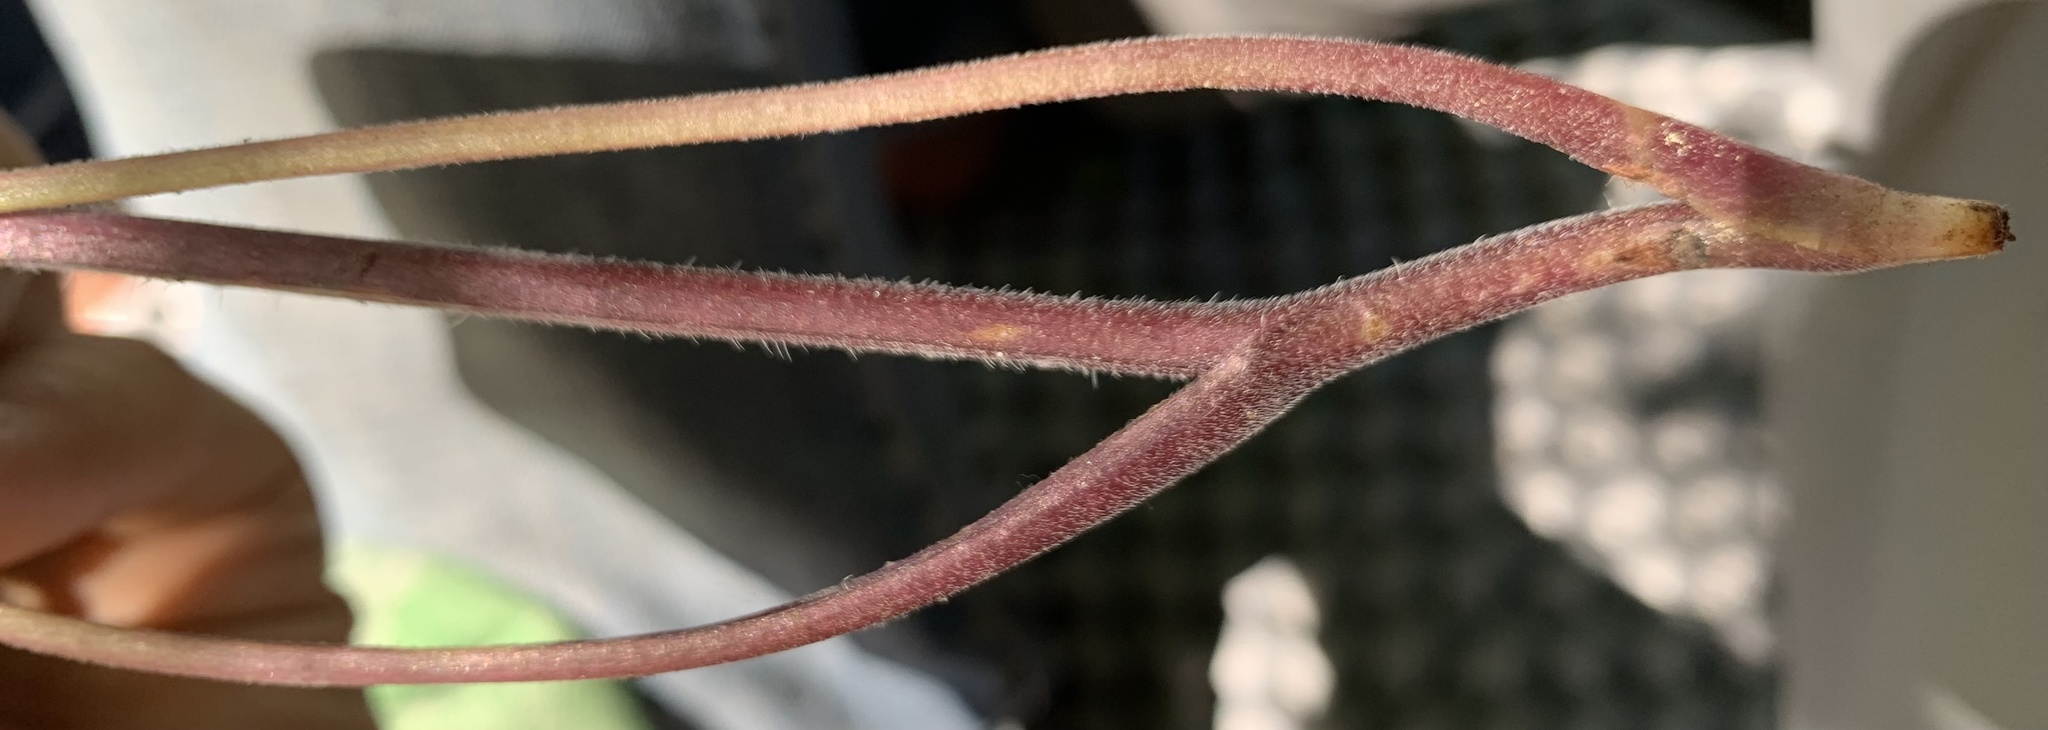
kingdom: Plantae
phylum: Tracheophyta
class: Magnoliopsida
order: Boraginales
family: Hydrophyllaceae
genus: Hydrophyllum
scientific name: Hydrophyllum capitatum
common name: Woollen-breeches
